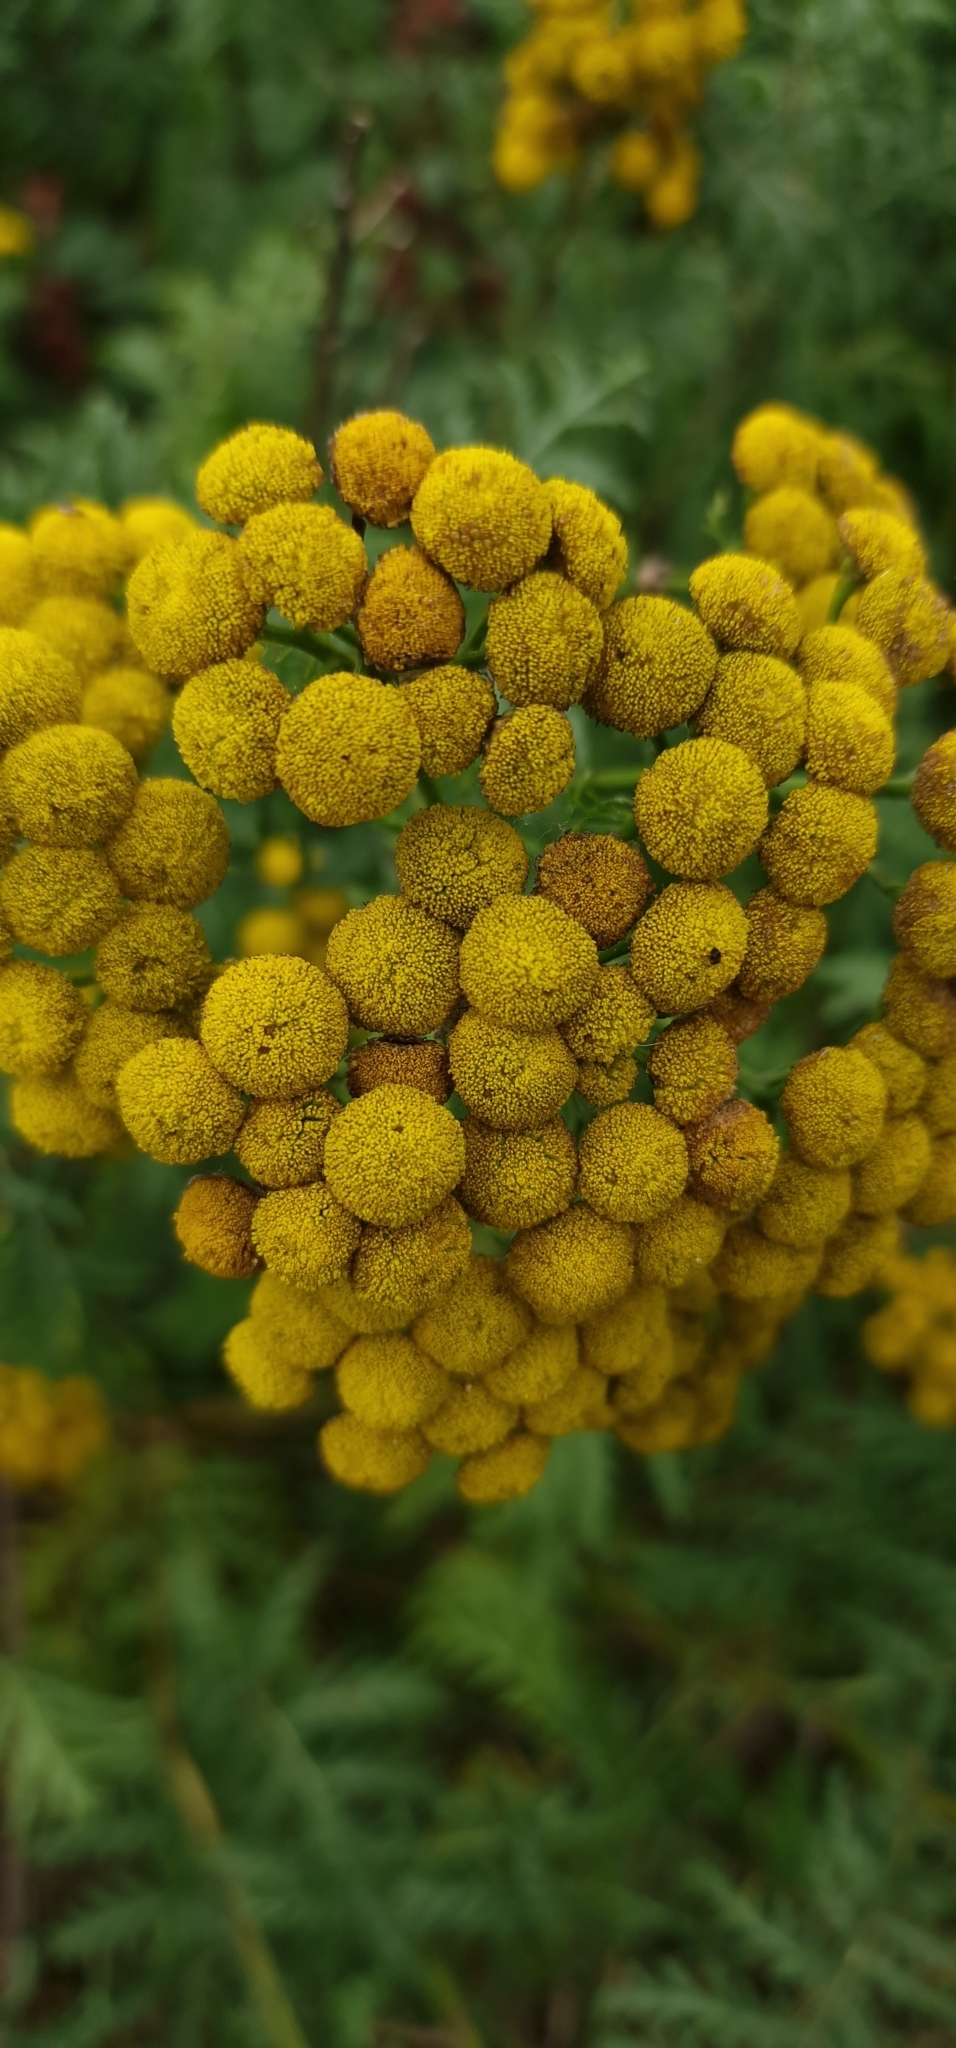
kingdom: Plantae
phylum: Tracheophyta
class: Magnoliopsida
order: Asterales
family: Asteraceae
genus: Tanacetum
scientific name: Tanacetum vulgare
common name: Common tansy
